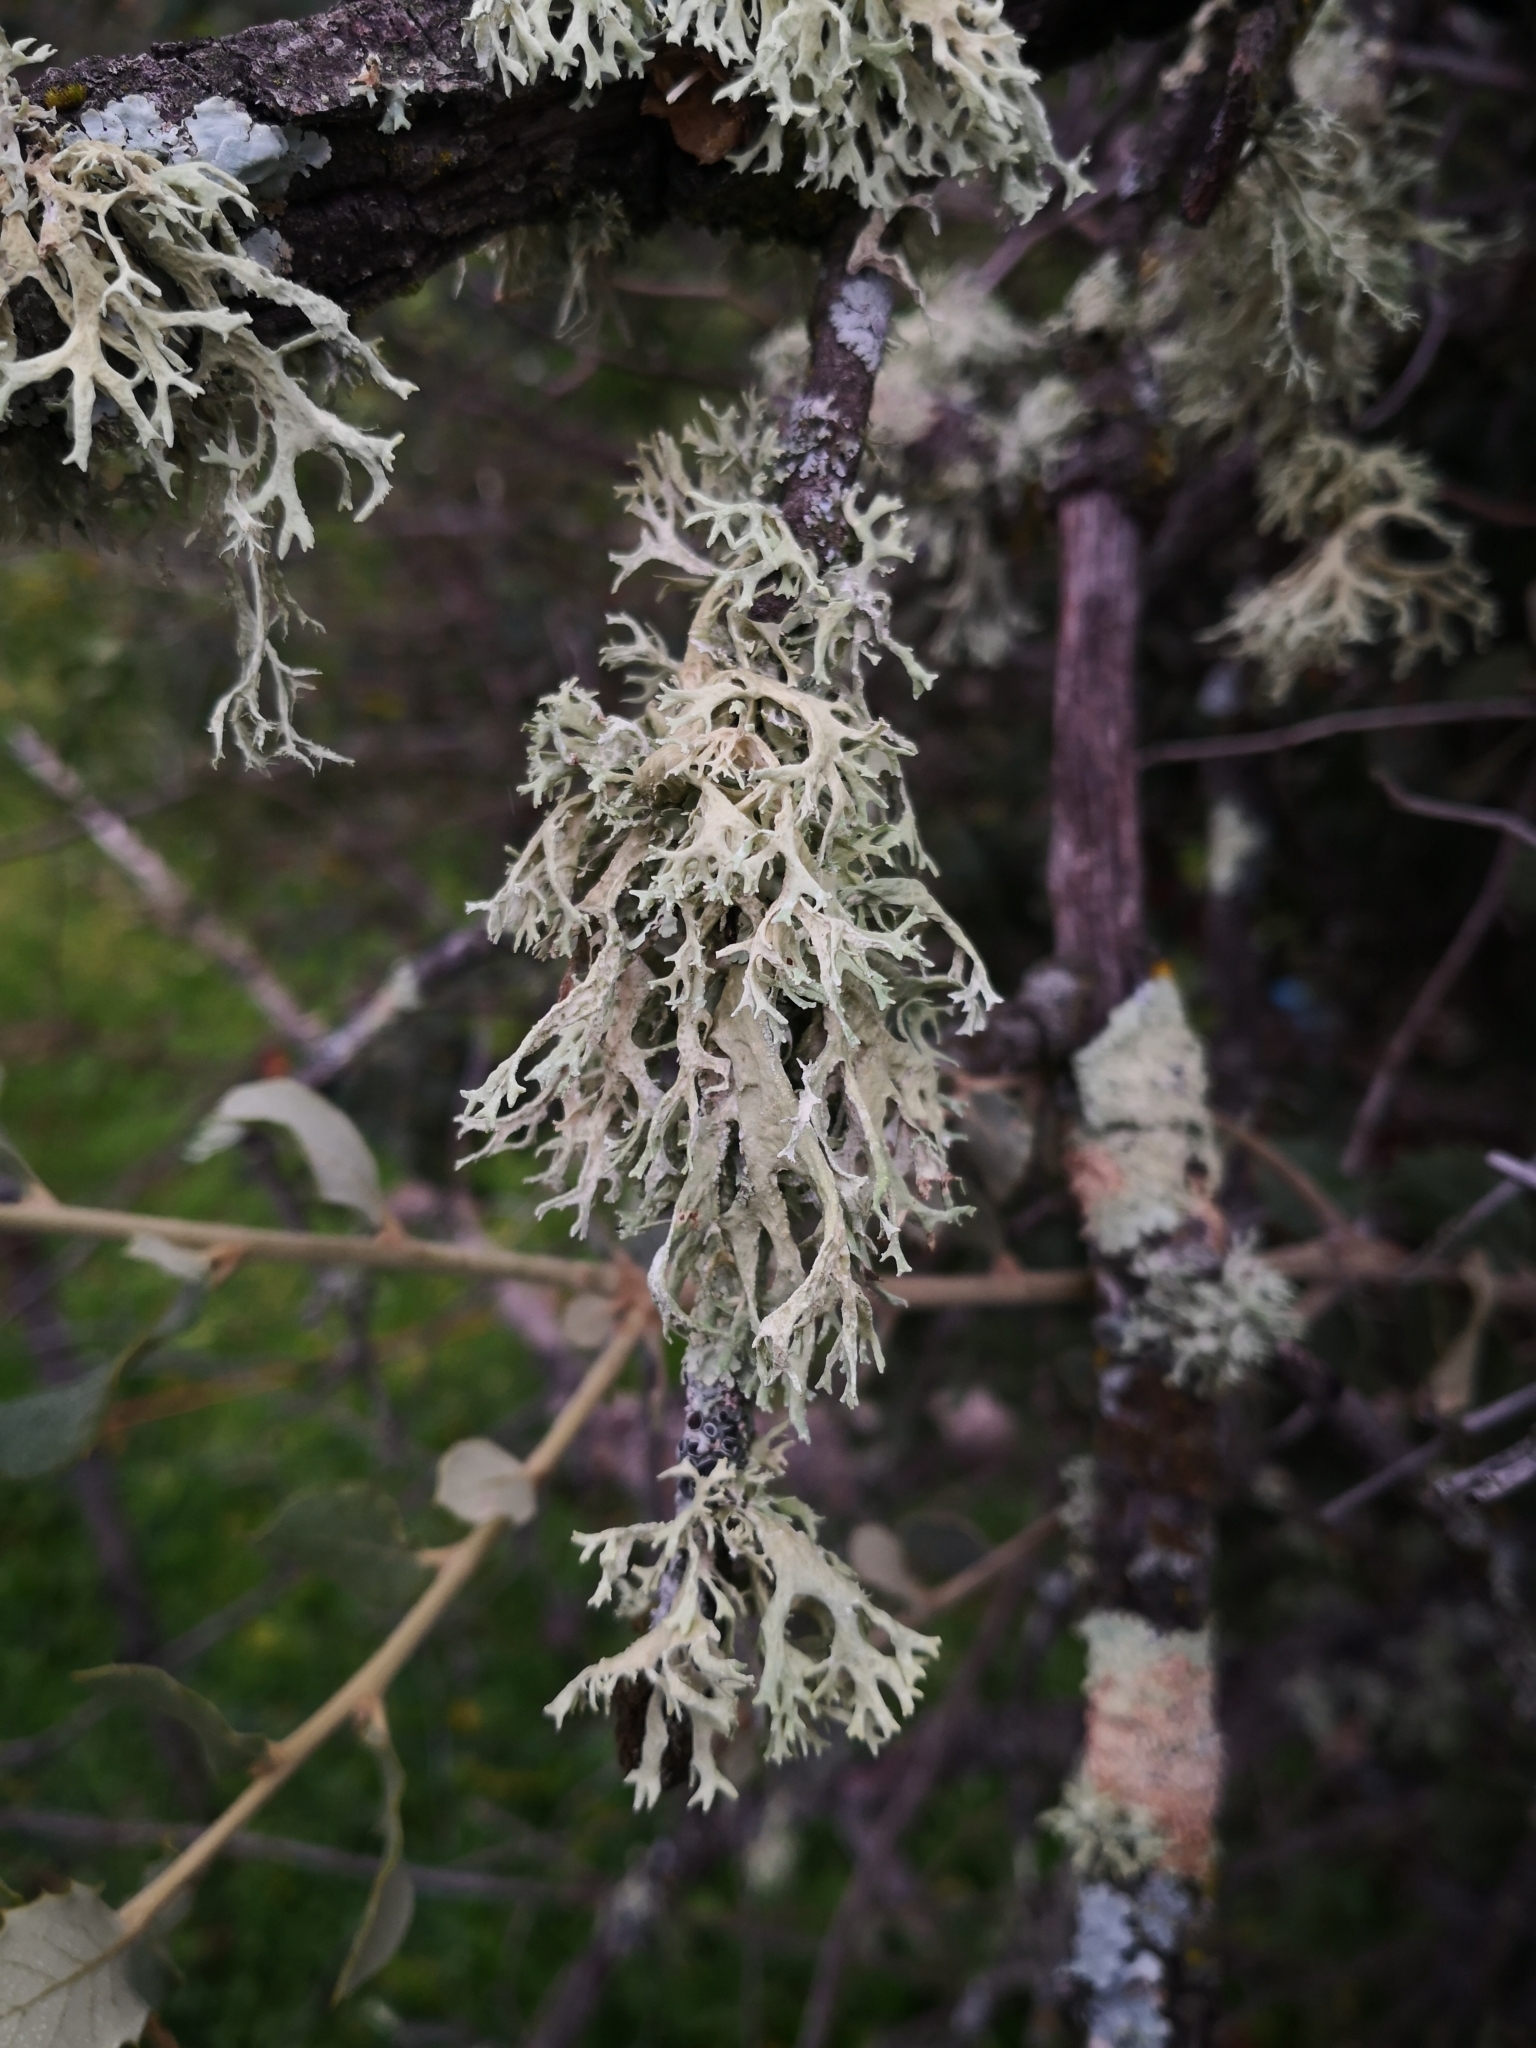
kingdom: Fungi
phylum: Ascomycota
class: Lecanoromycetes
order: Lecanorales
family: Parmeliaceae
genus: Evernia
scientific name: Evernia prunastri
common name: Oak moss
